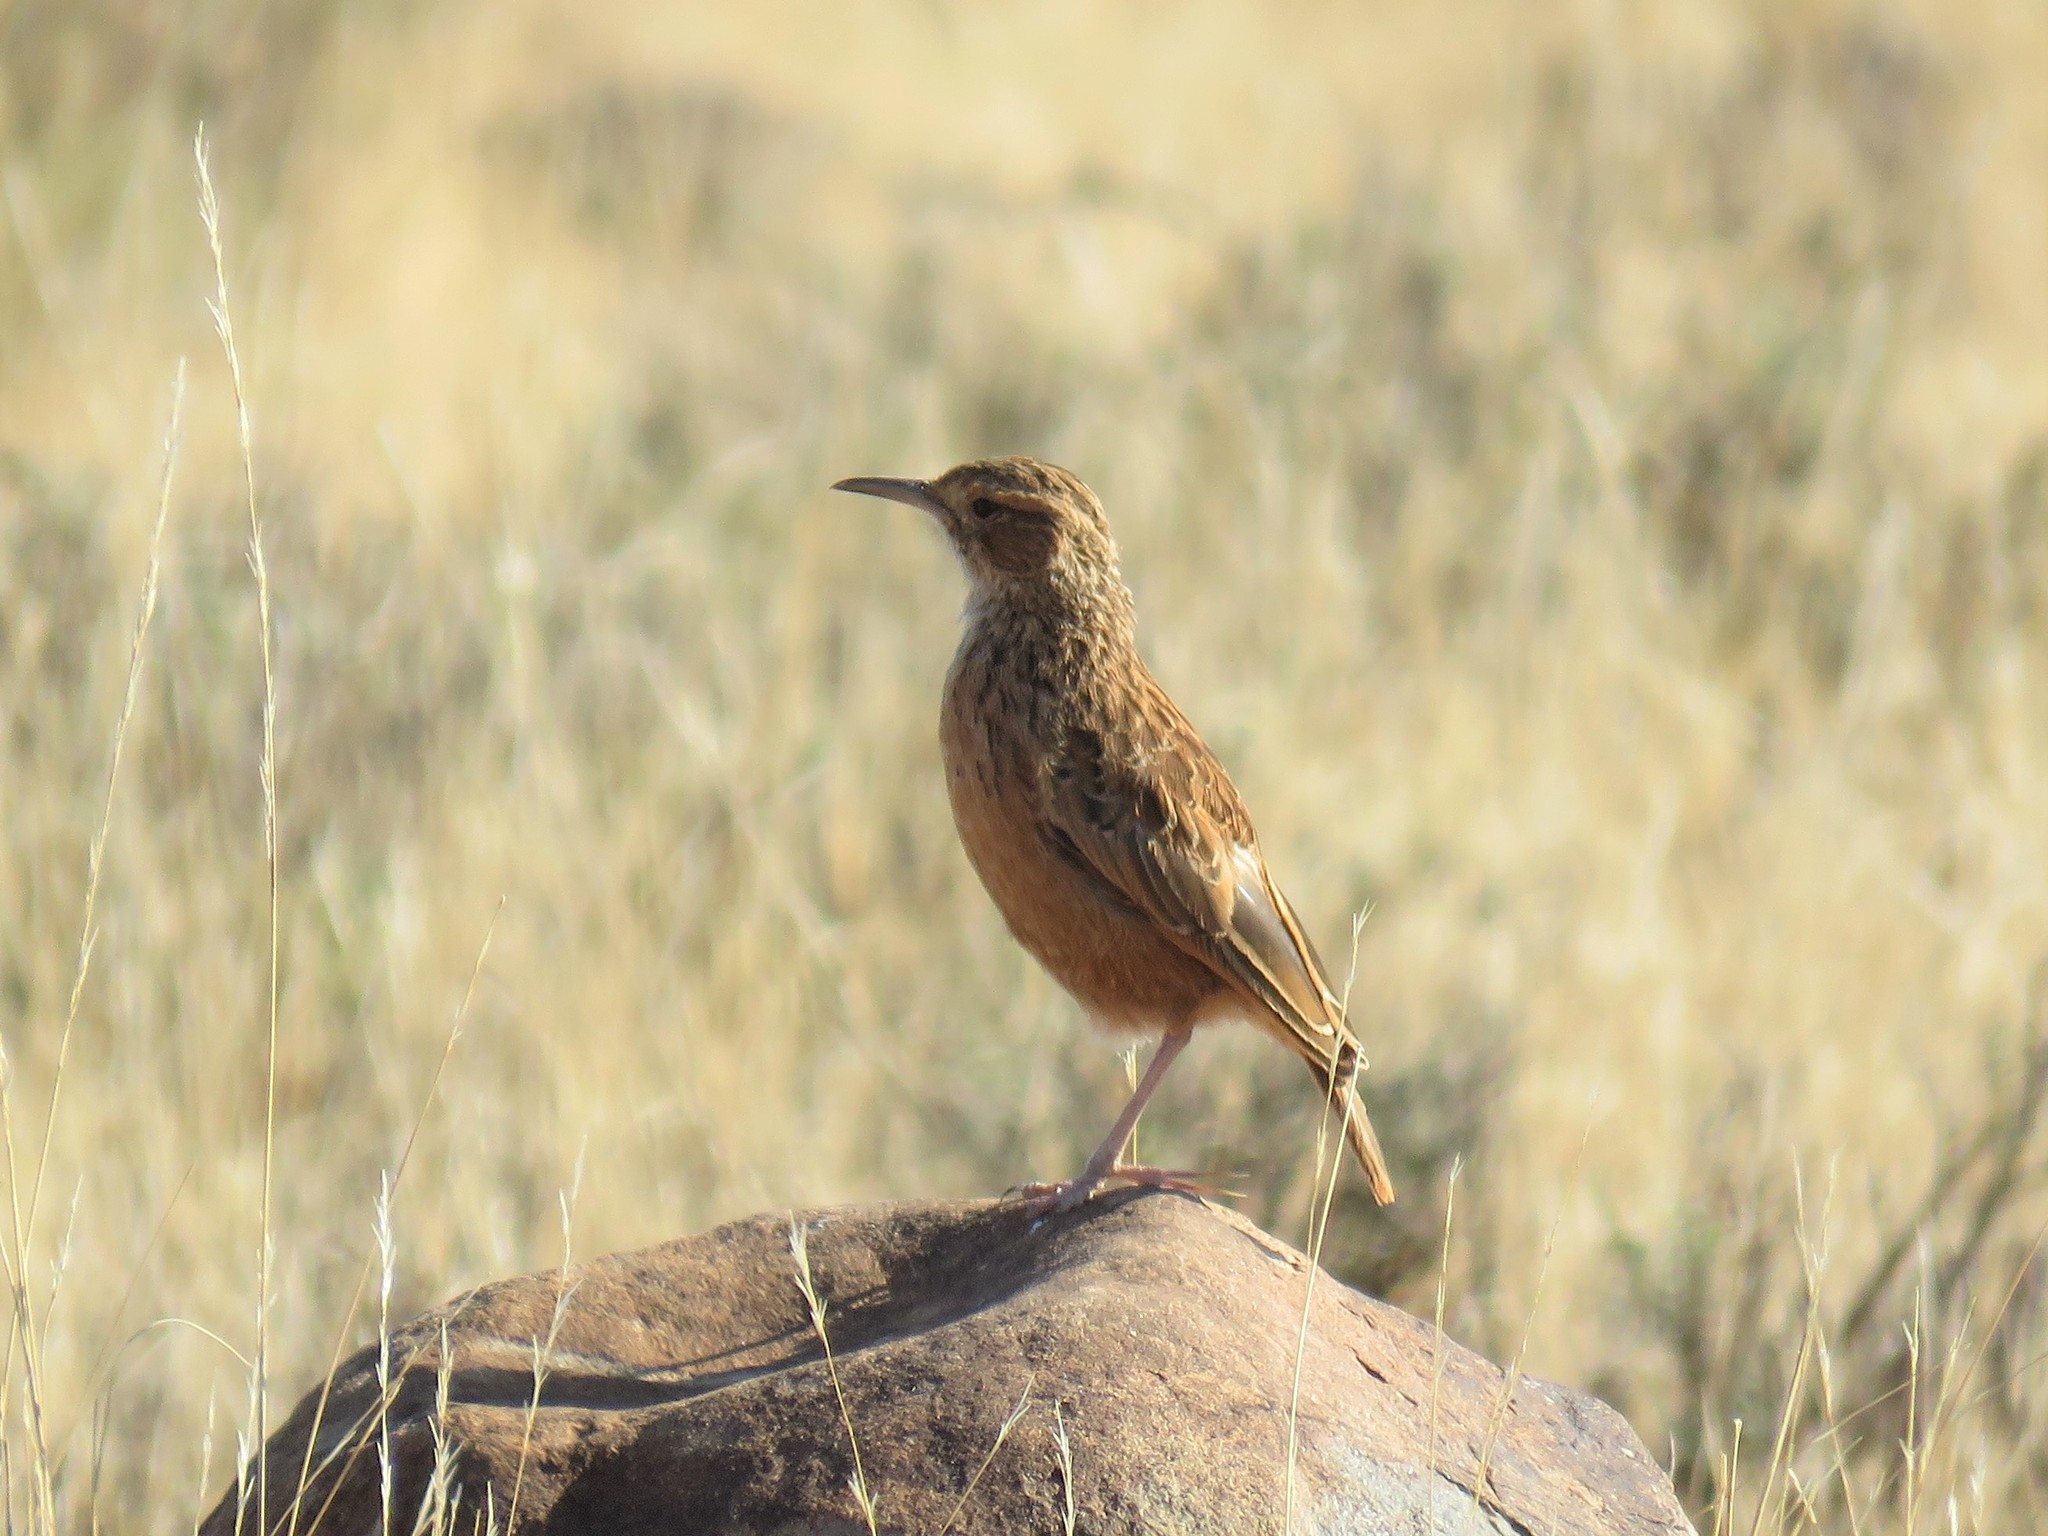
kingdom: Animalia
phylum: Chordata
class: Aves
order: Passeriformes
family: Alaudidae
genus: Chersomanes
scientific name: Chersomanes albofasciata
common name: Spike-heeled lark
